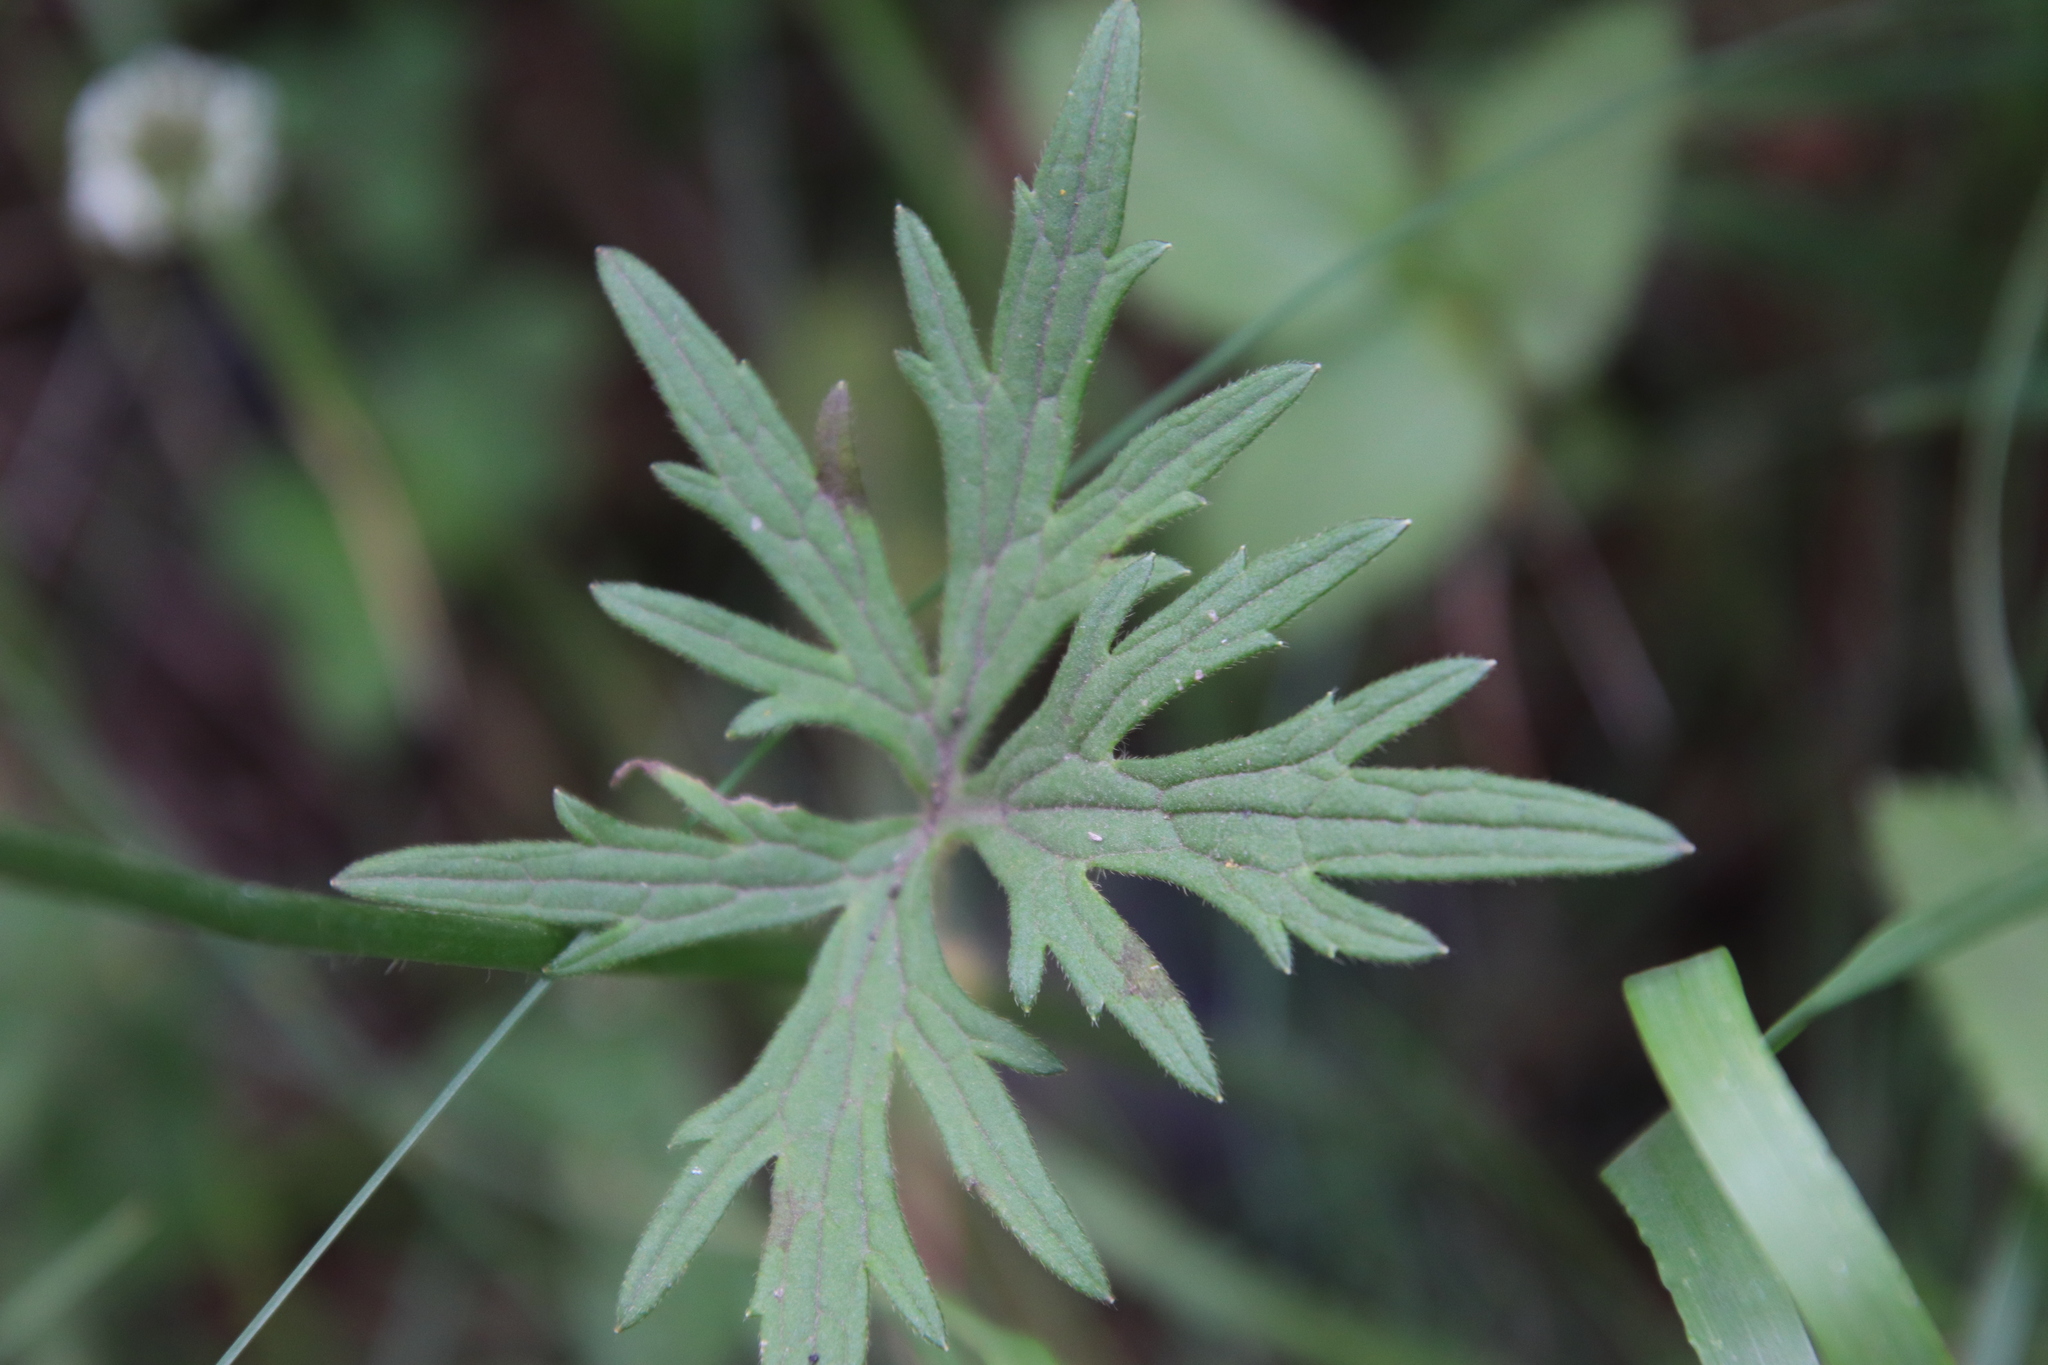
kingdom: Plantae
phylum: Tracheophyta
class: Magnoliopsida
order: Ranunculales
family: Ranunculaceae
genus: Ranunculus
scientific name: Ranunculus acris
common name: Meadow buttercup
